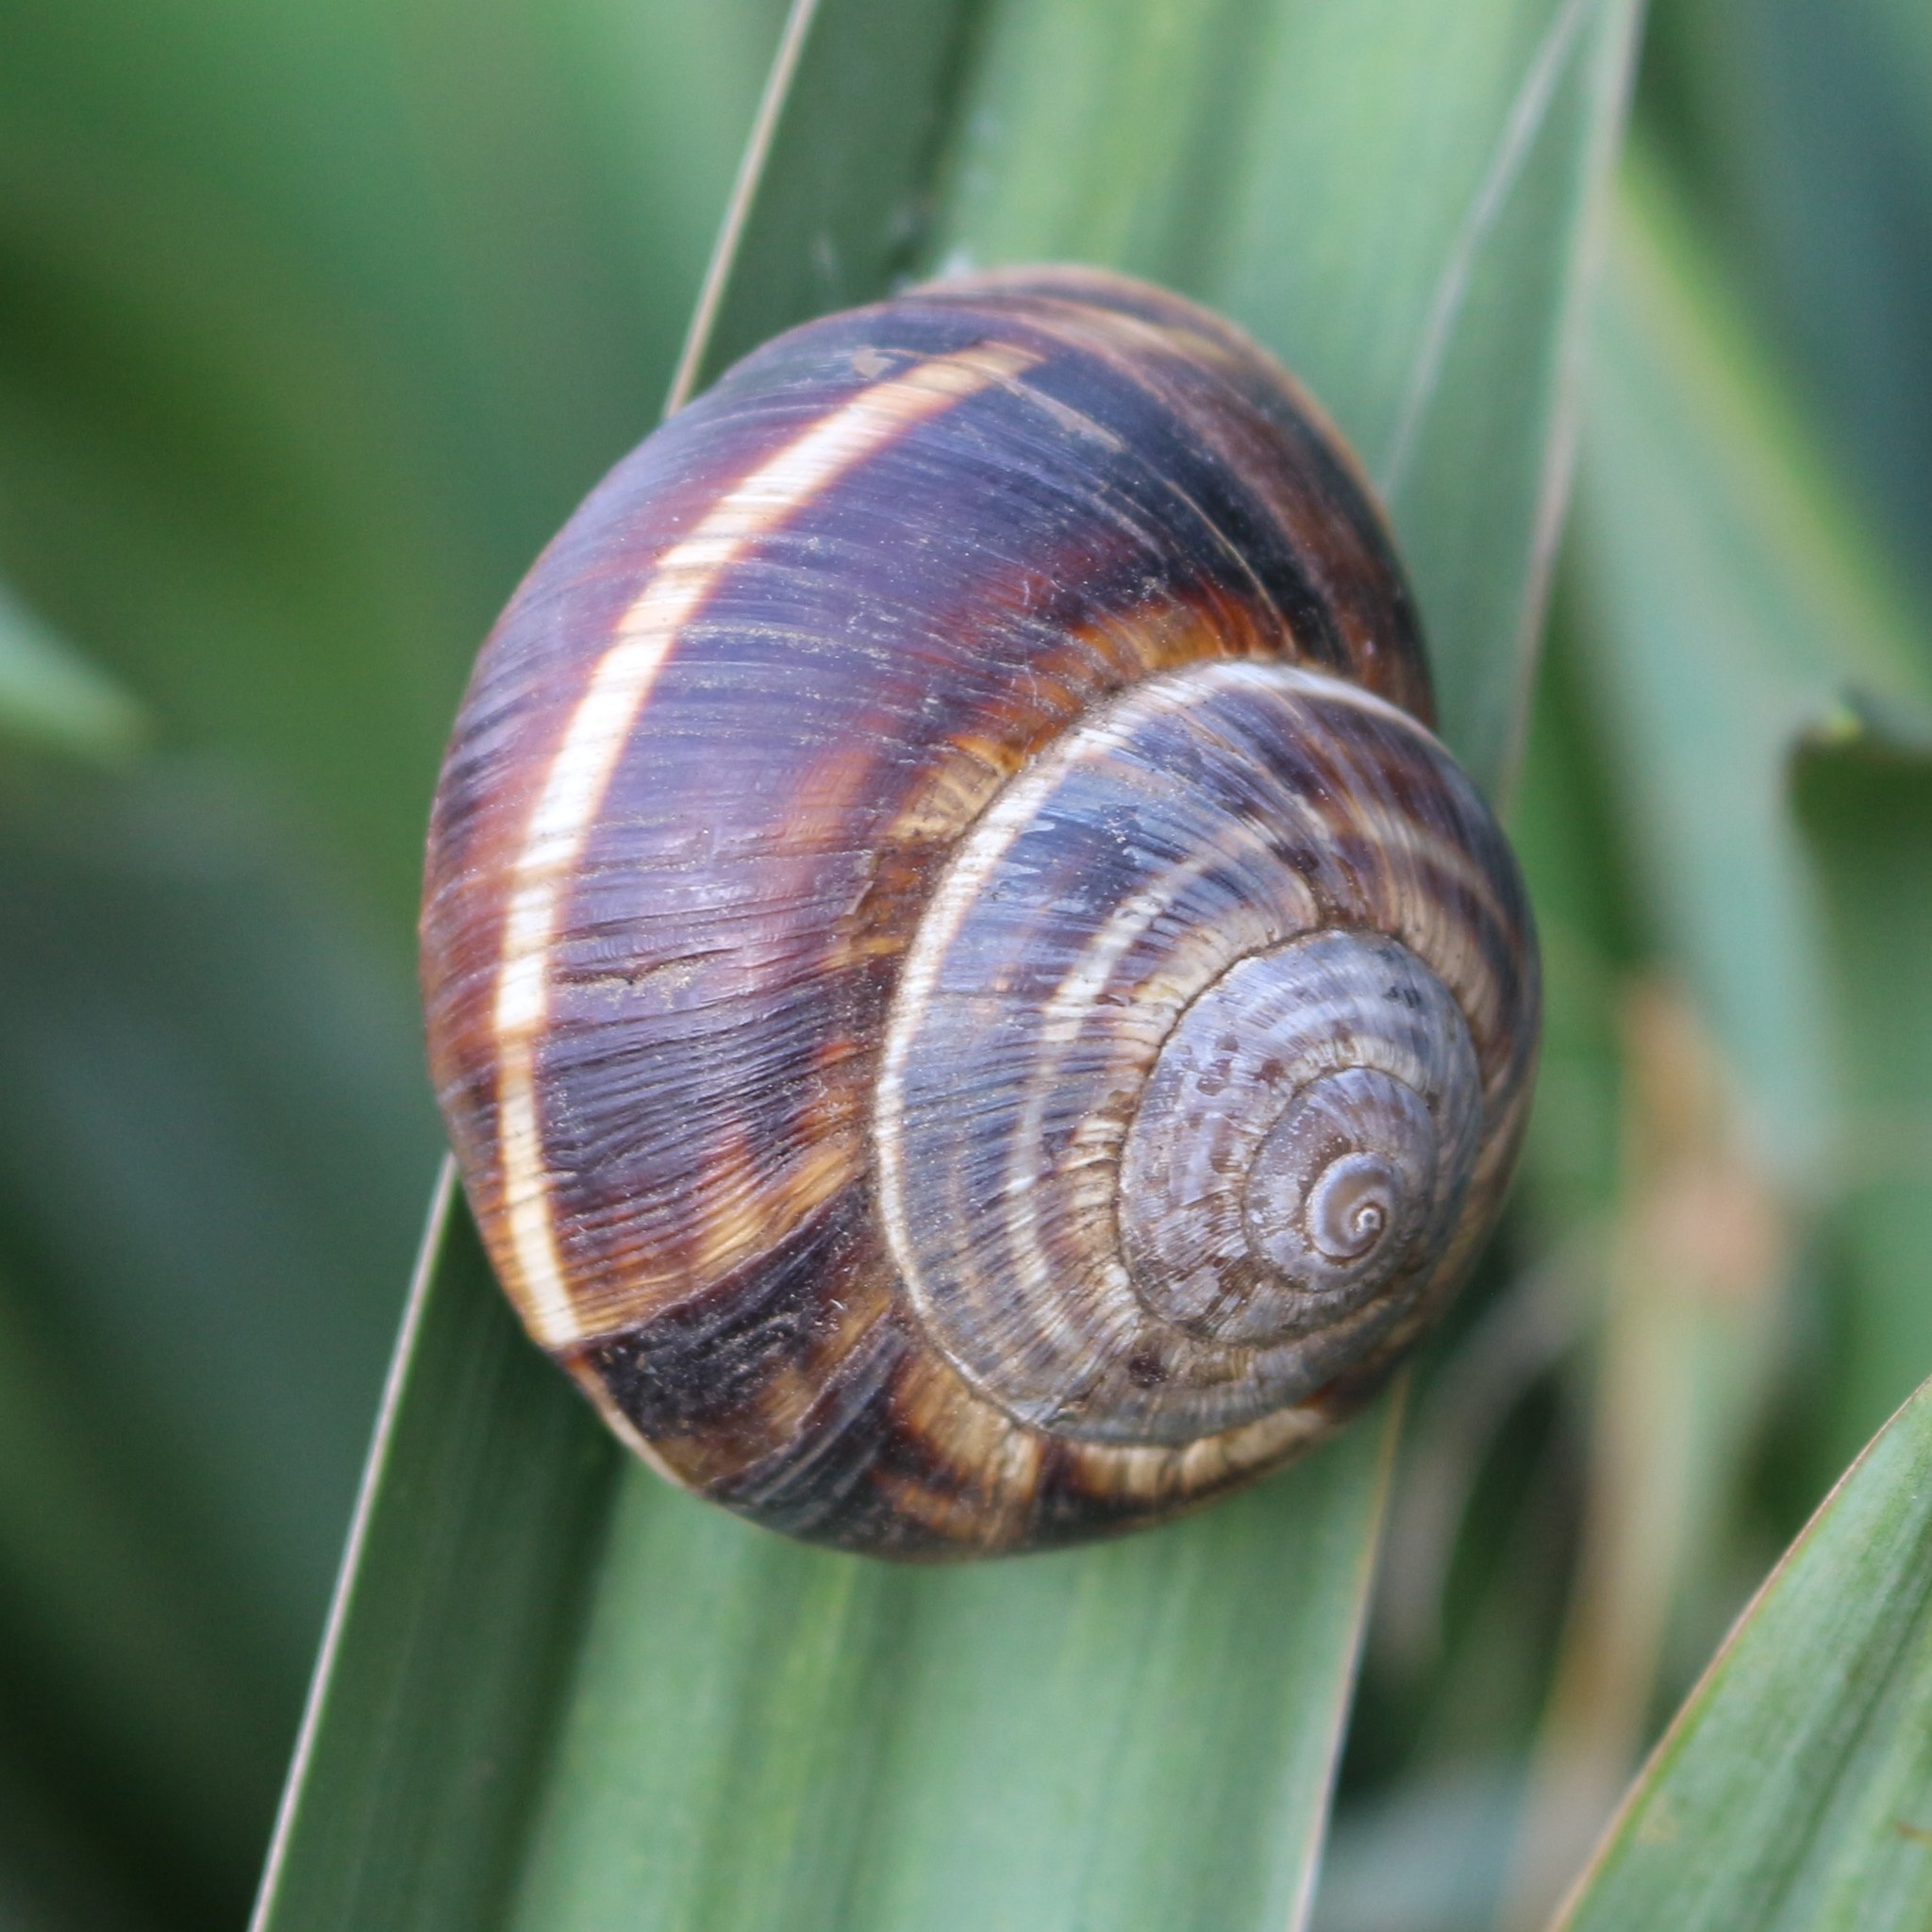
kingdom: Animalia
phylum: Mollusca
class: Gastropoda
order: Stylommatophora
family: Helicidae
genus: Helix
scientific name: Helix lucorum
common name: Turkish snail
